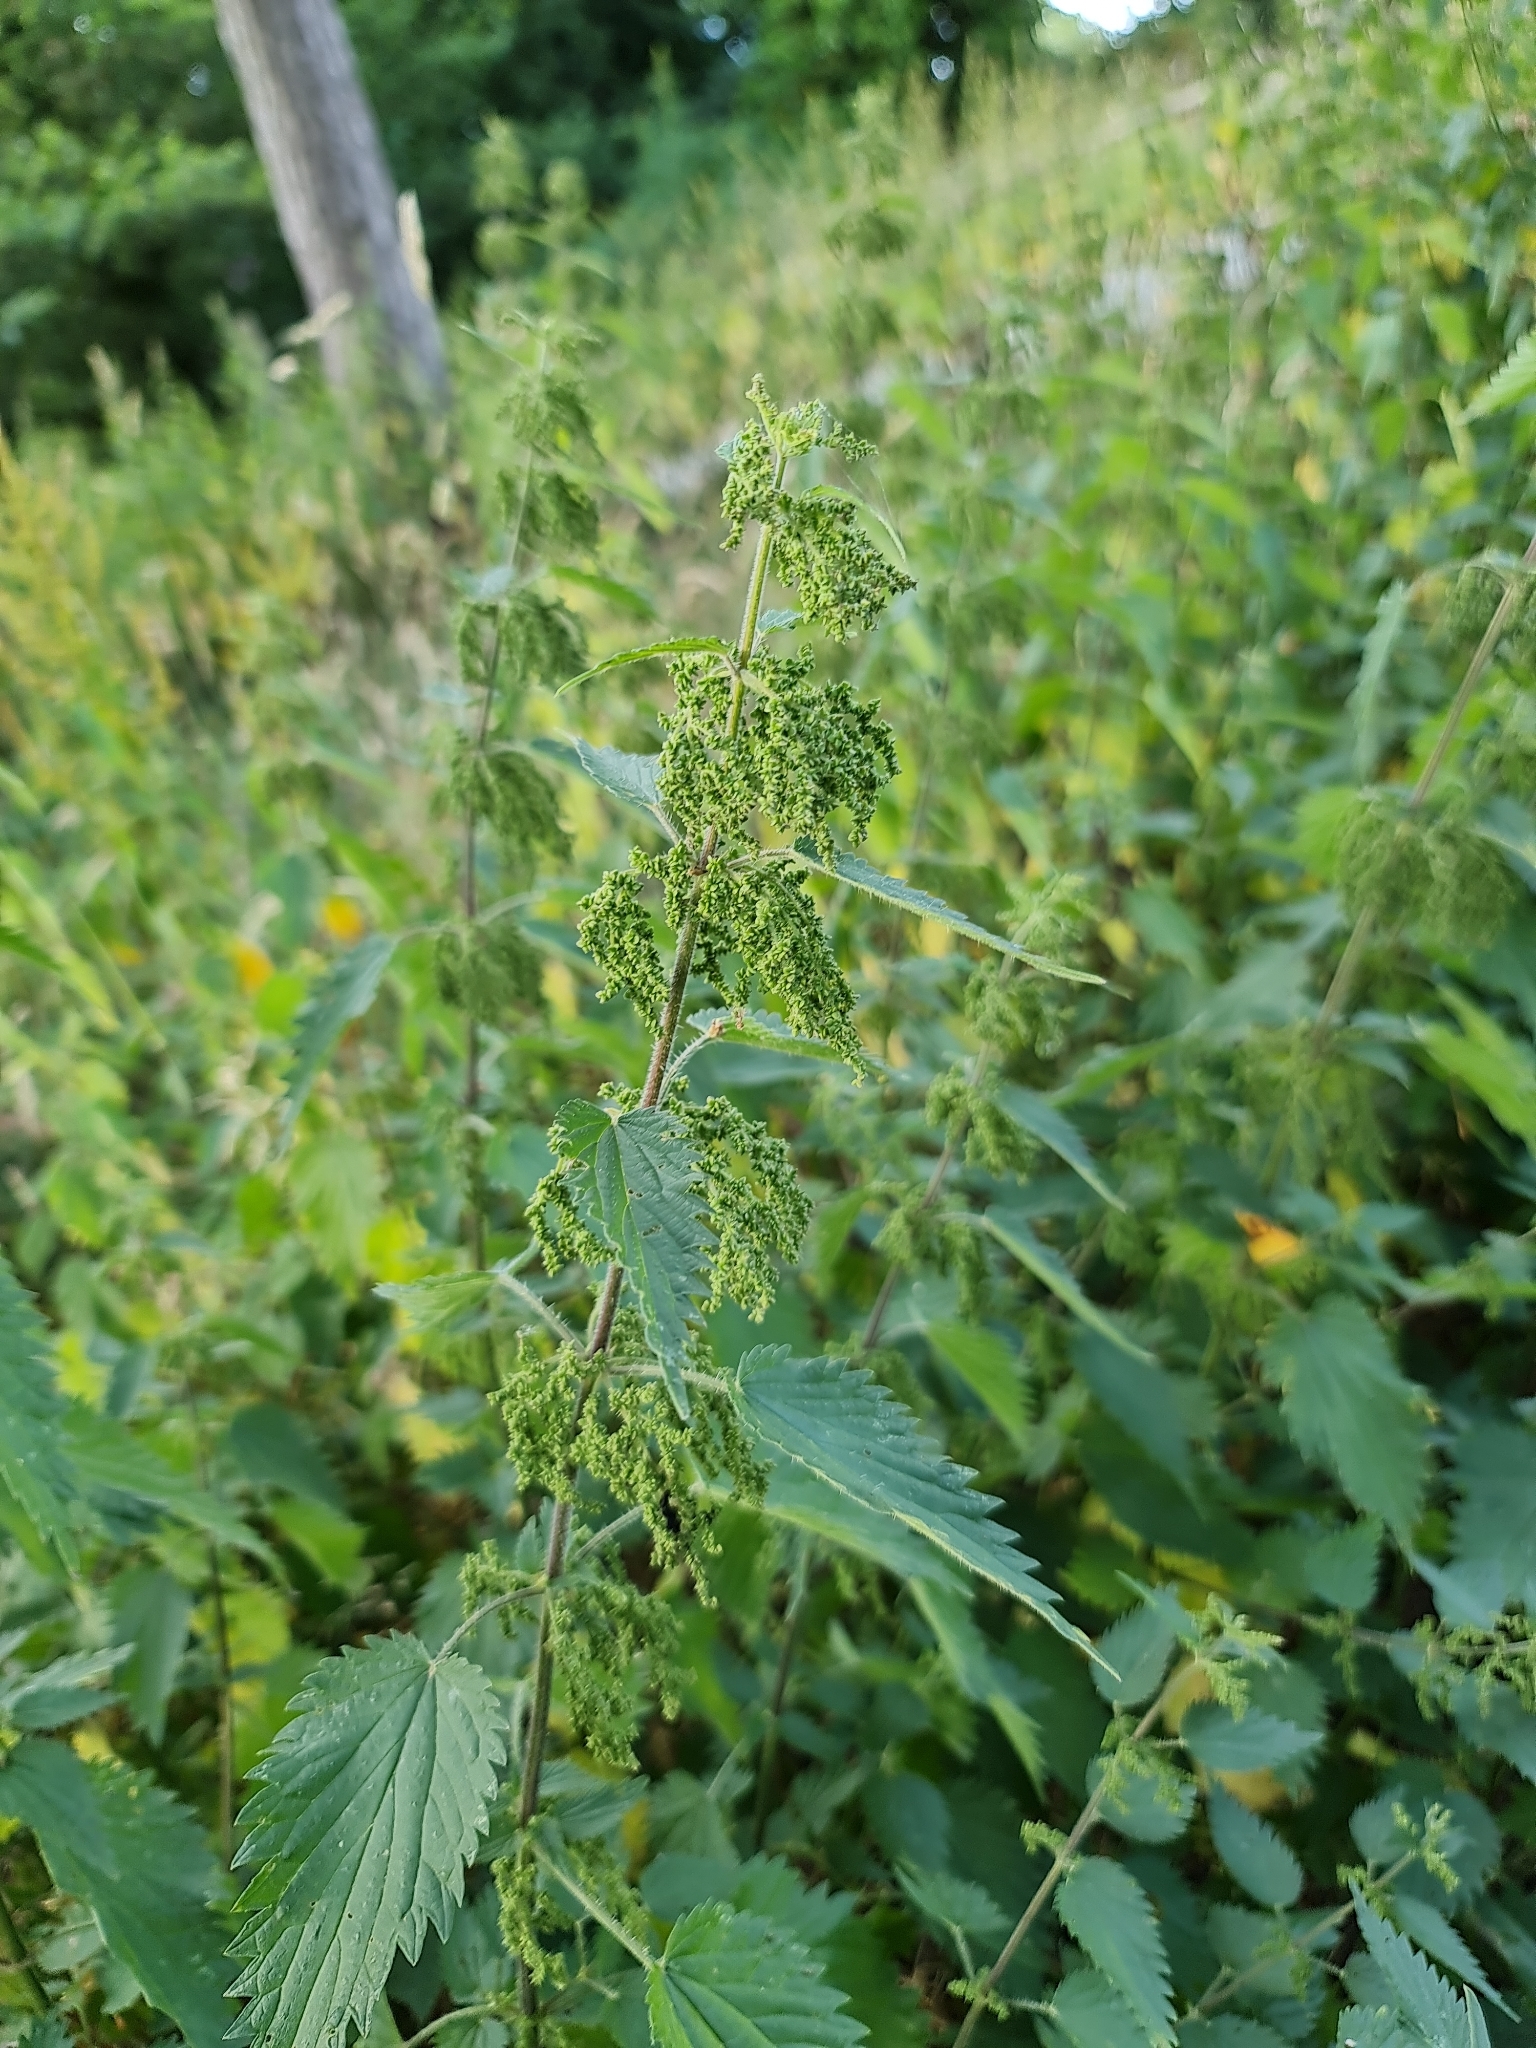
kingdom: Plantae
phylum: Tracheophyta
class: Magnoliopsida
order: Rosales
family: Urticaceae
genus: Urtica
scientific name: Urtica dioica
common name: Common nettle
